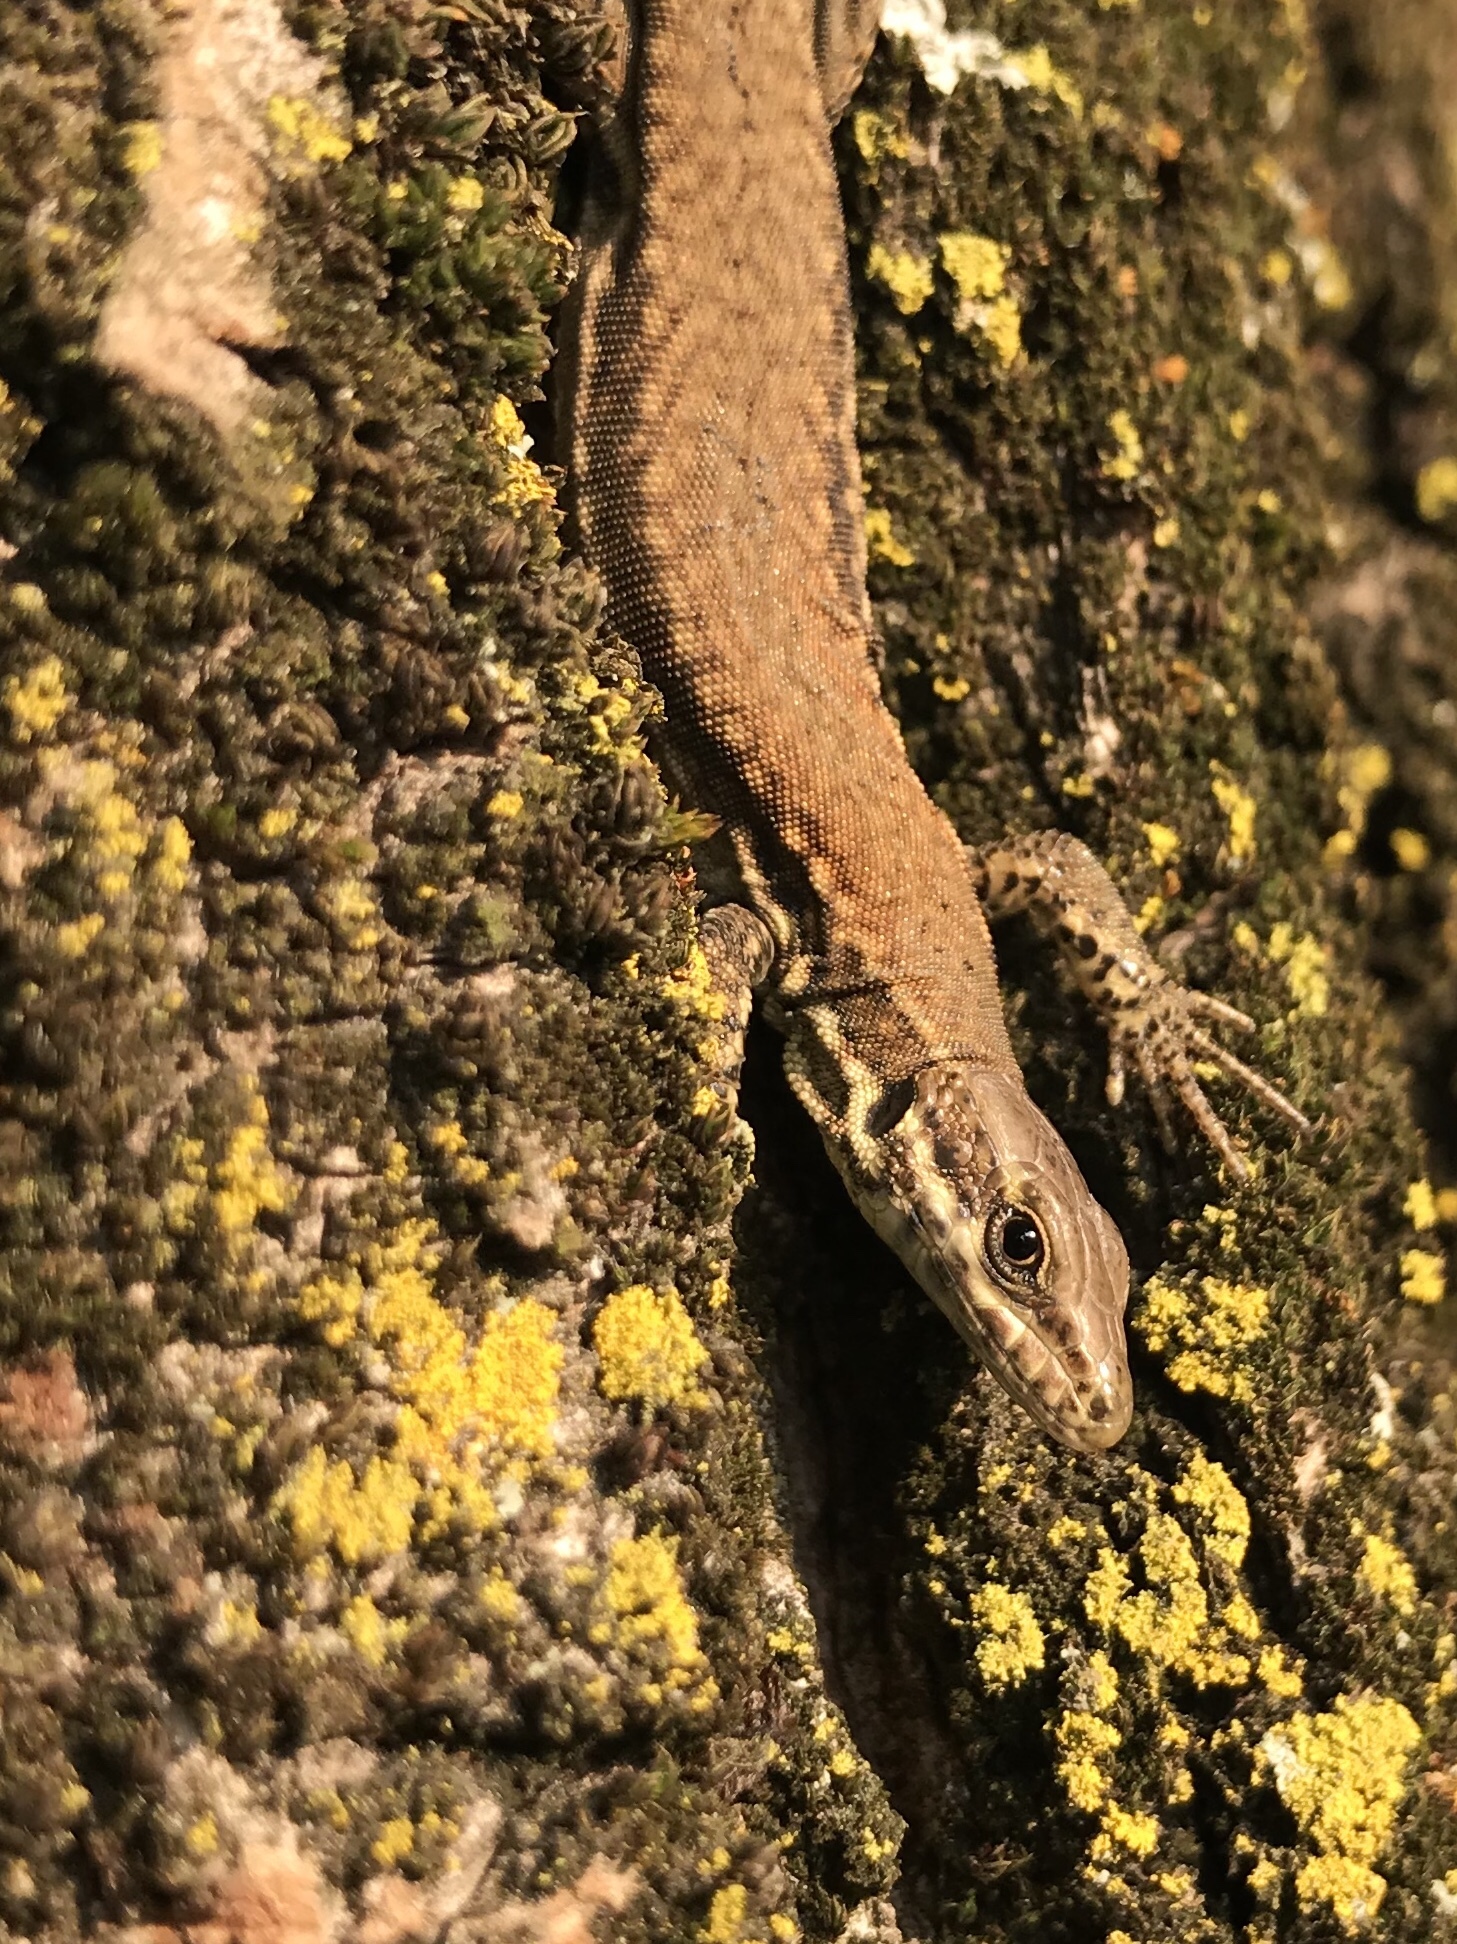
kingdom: Animalia
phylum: Chordata
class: Squamata
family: Lacertidae
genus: Podarcis
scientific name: Podarcis muralis
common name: Common wall lizard
